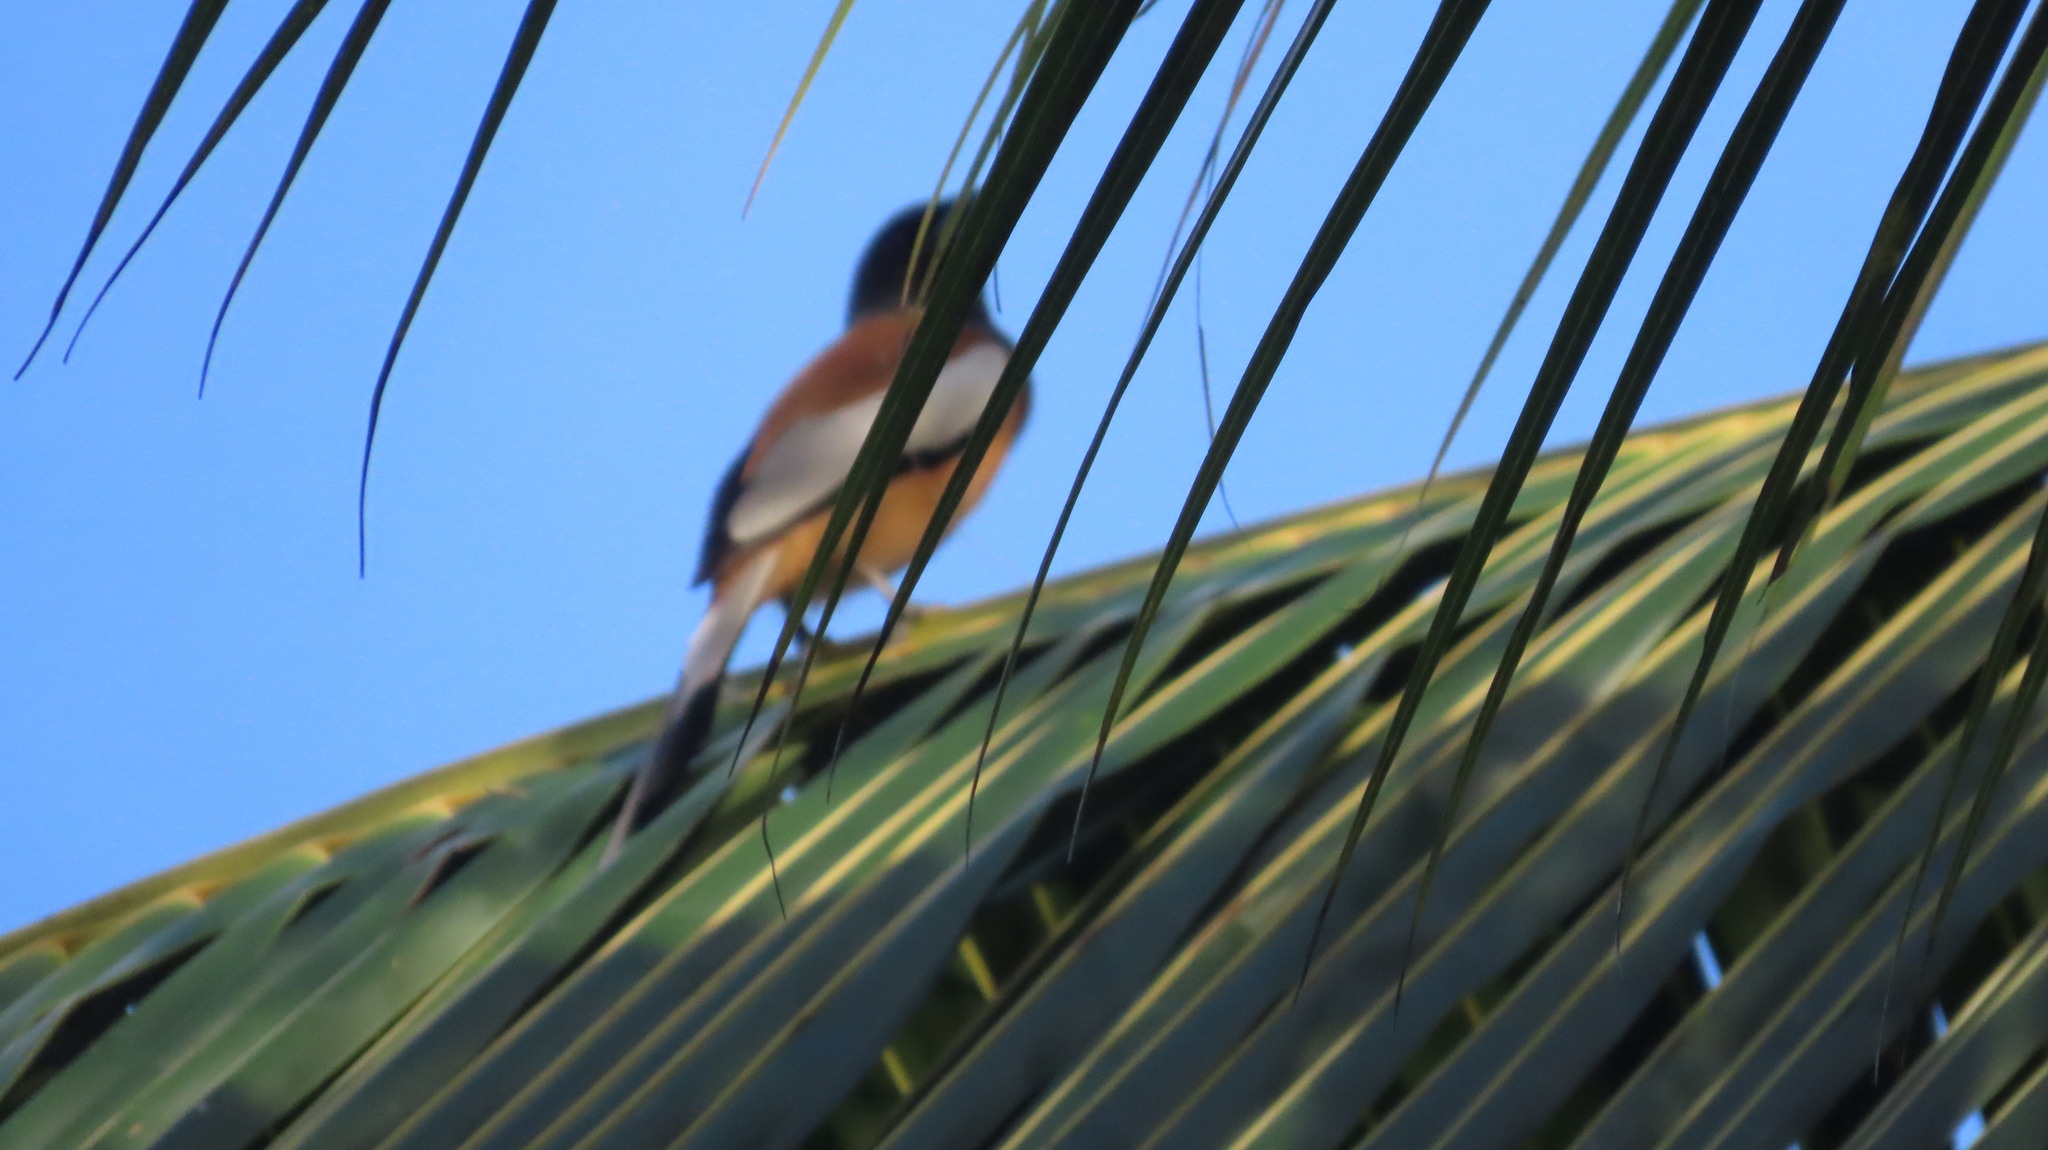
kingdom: Animalia
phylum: Chordata
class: Aves
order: Passeriformes
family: Corvidae
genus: Dendrocitta
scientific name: Dendrocitta vagabunda
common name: Rufous treepie
